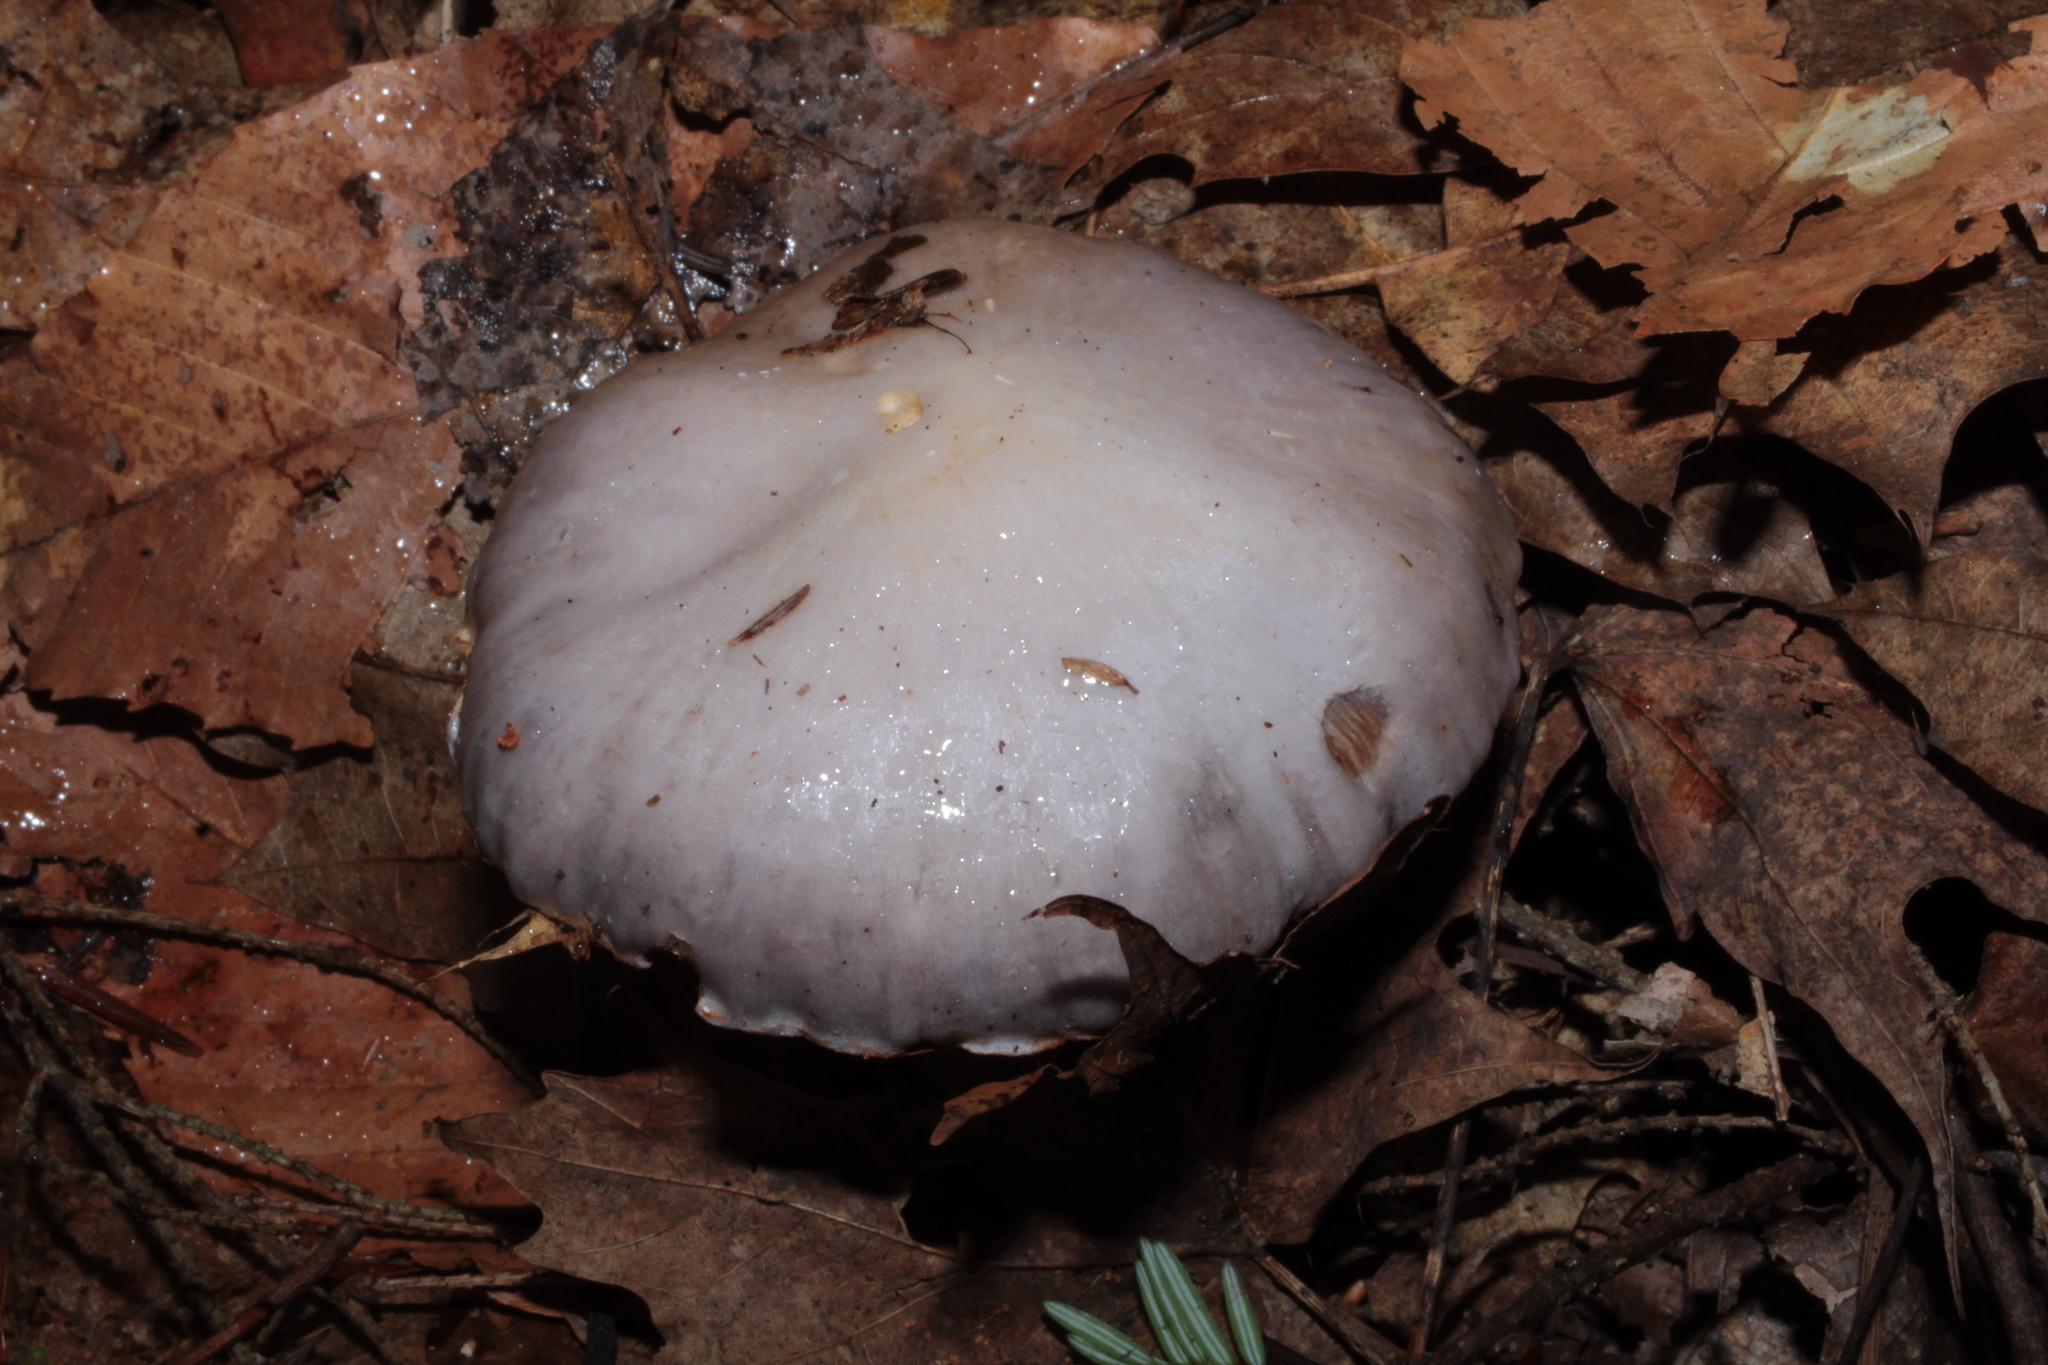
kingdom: Fungi
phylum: Basidiomycota
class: Agaricomycetes
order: Agaricales
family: Cortinariaceae
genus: Cortinarius
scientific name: Cortinarius obliquus
